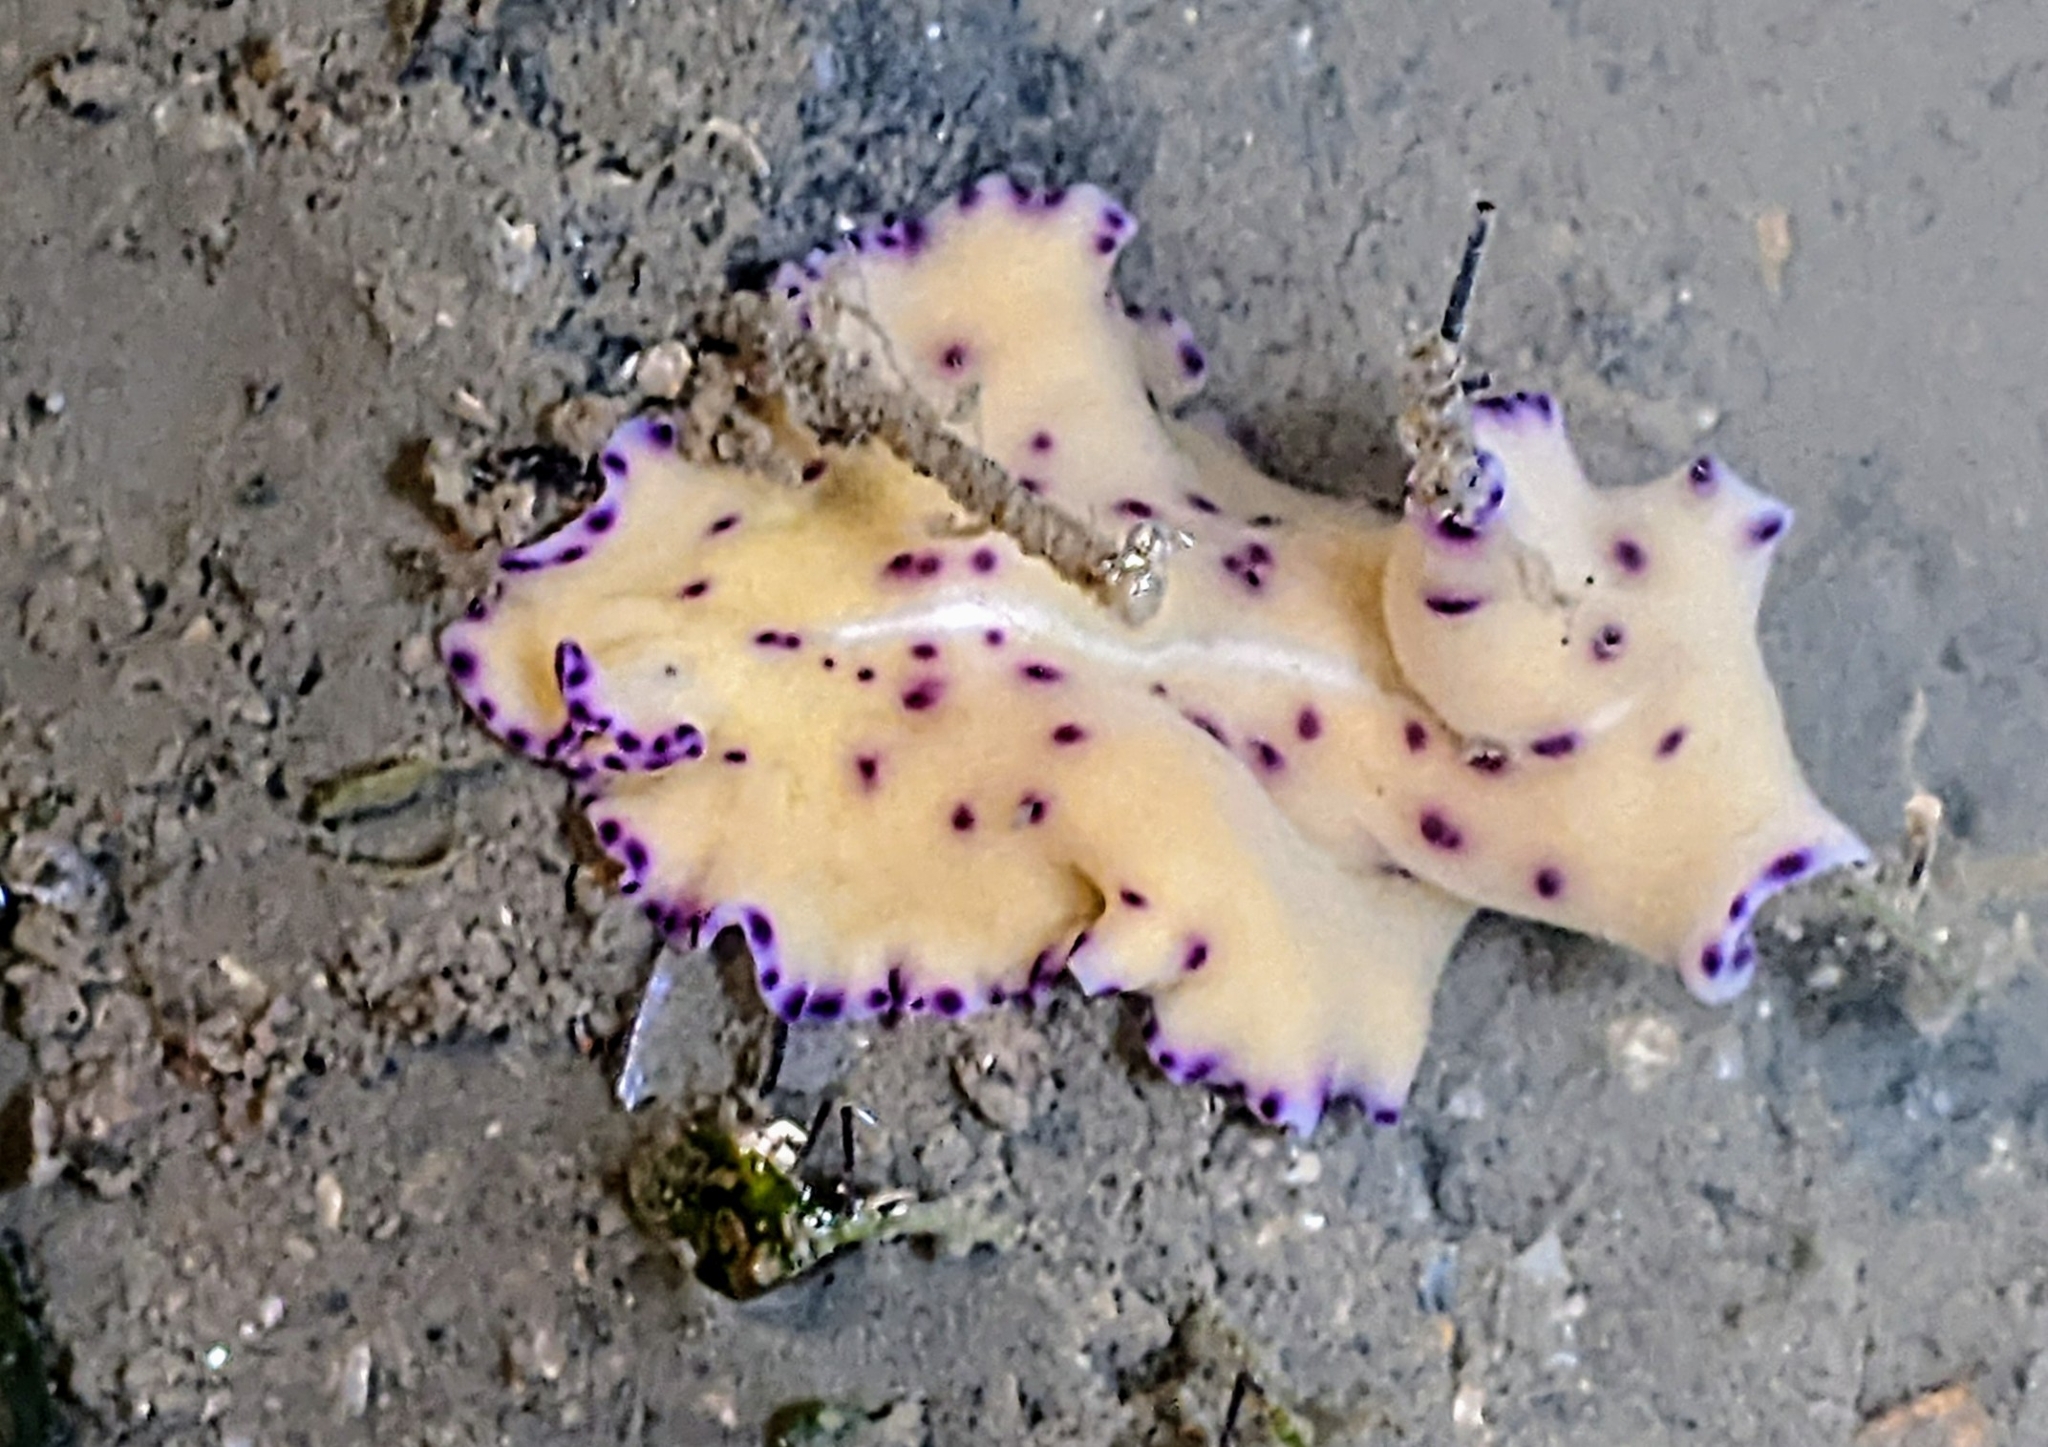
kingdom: Animalia
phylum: Platyhelminthes
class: Turbellaria
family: Pseudocerotidae
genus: Pseudoceros
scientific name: Pseudoceros laingensis
